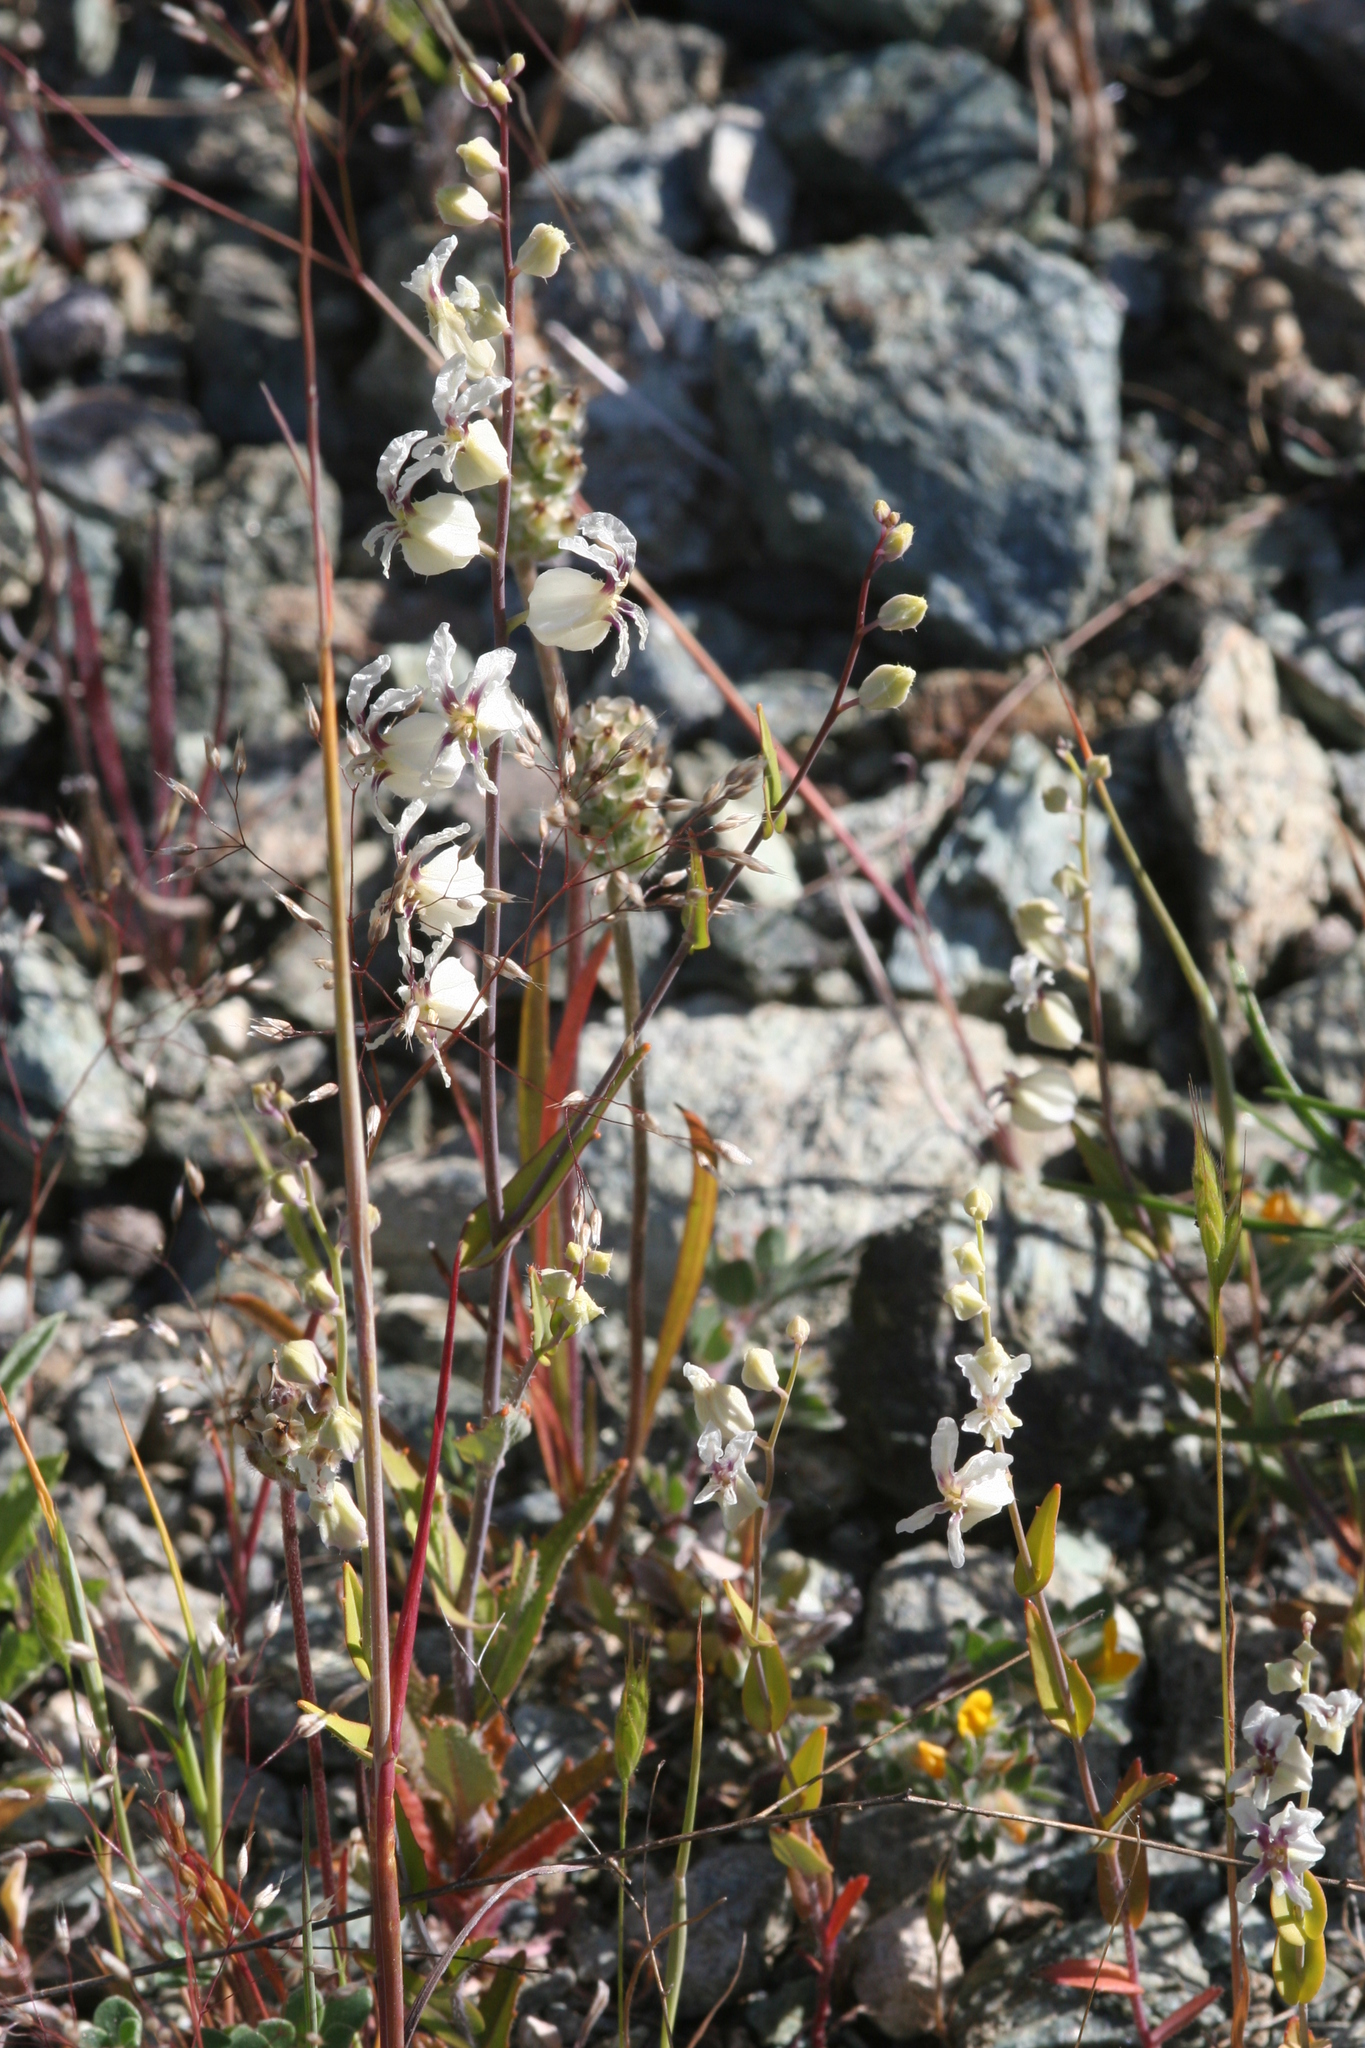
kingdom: Plantae
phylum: Tracheophyta
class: Magnoliopsida
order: Brassicales
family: Brassicaceae
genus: Streptanthus
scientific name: Streptanthus glandulosus
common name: Jewel-flower
